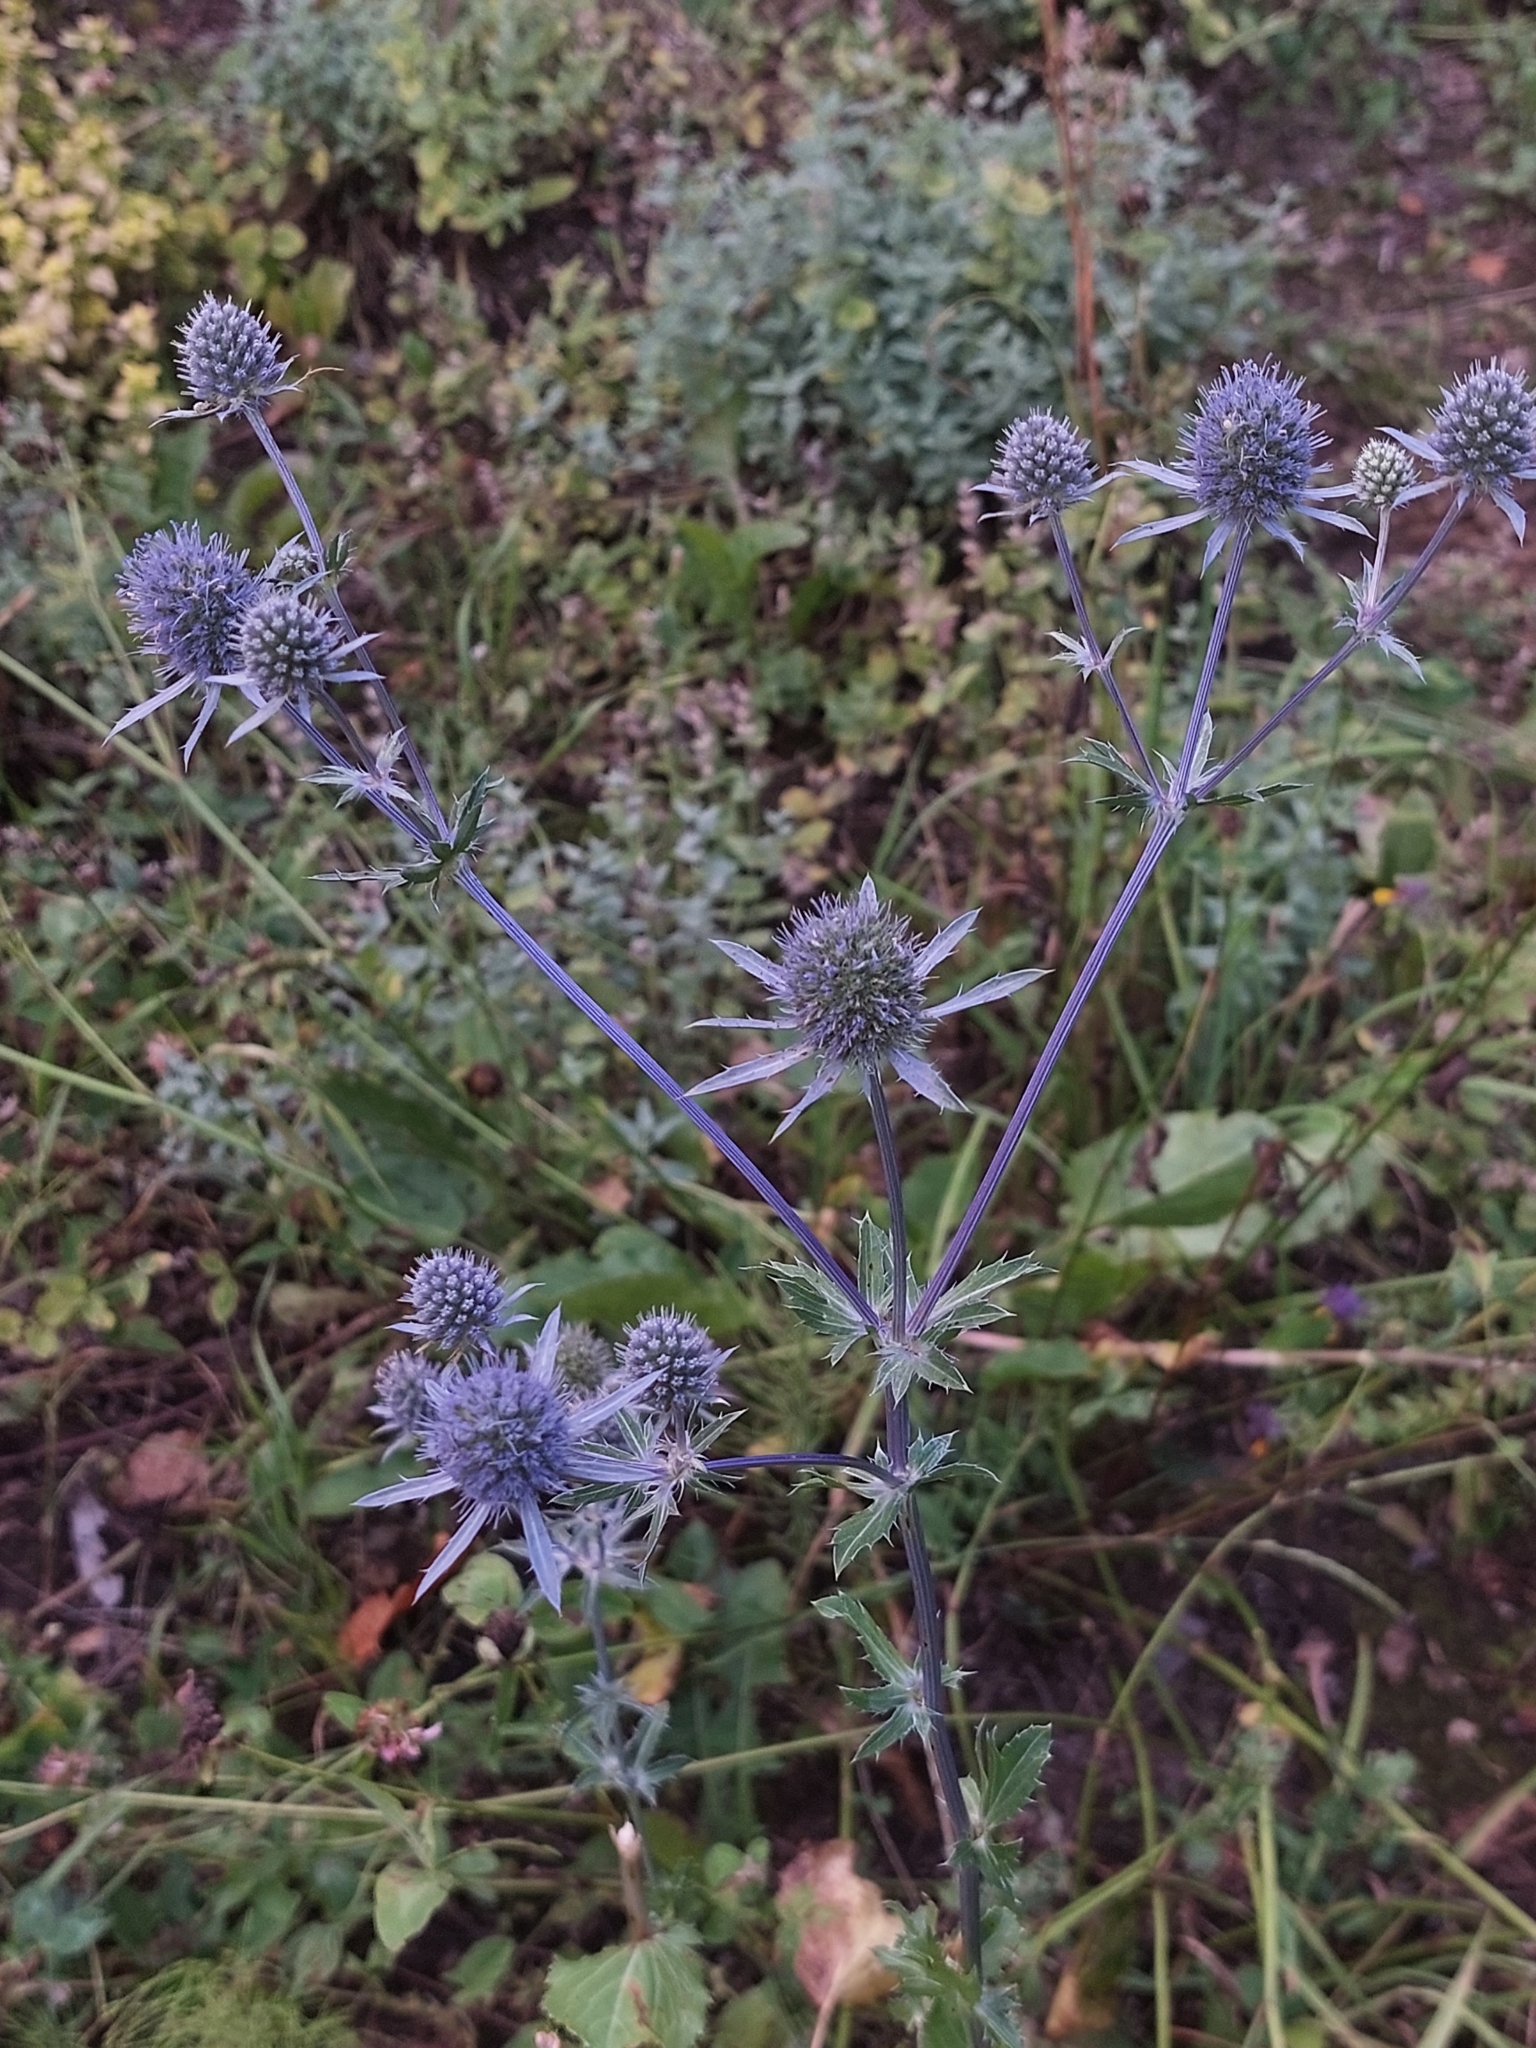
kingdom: Plantae
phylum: Tracheophyta
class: Magnoliopsida
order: Apiales
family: Apiaceae
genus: Eryngium
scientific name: Eryngium planum
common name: Blue eryngo
